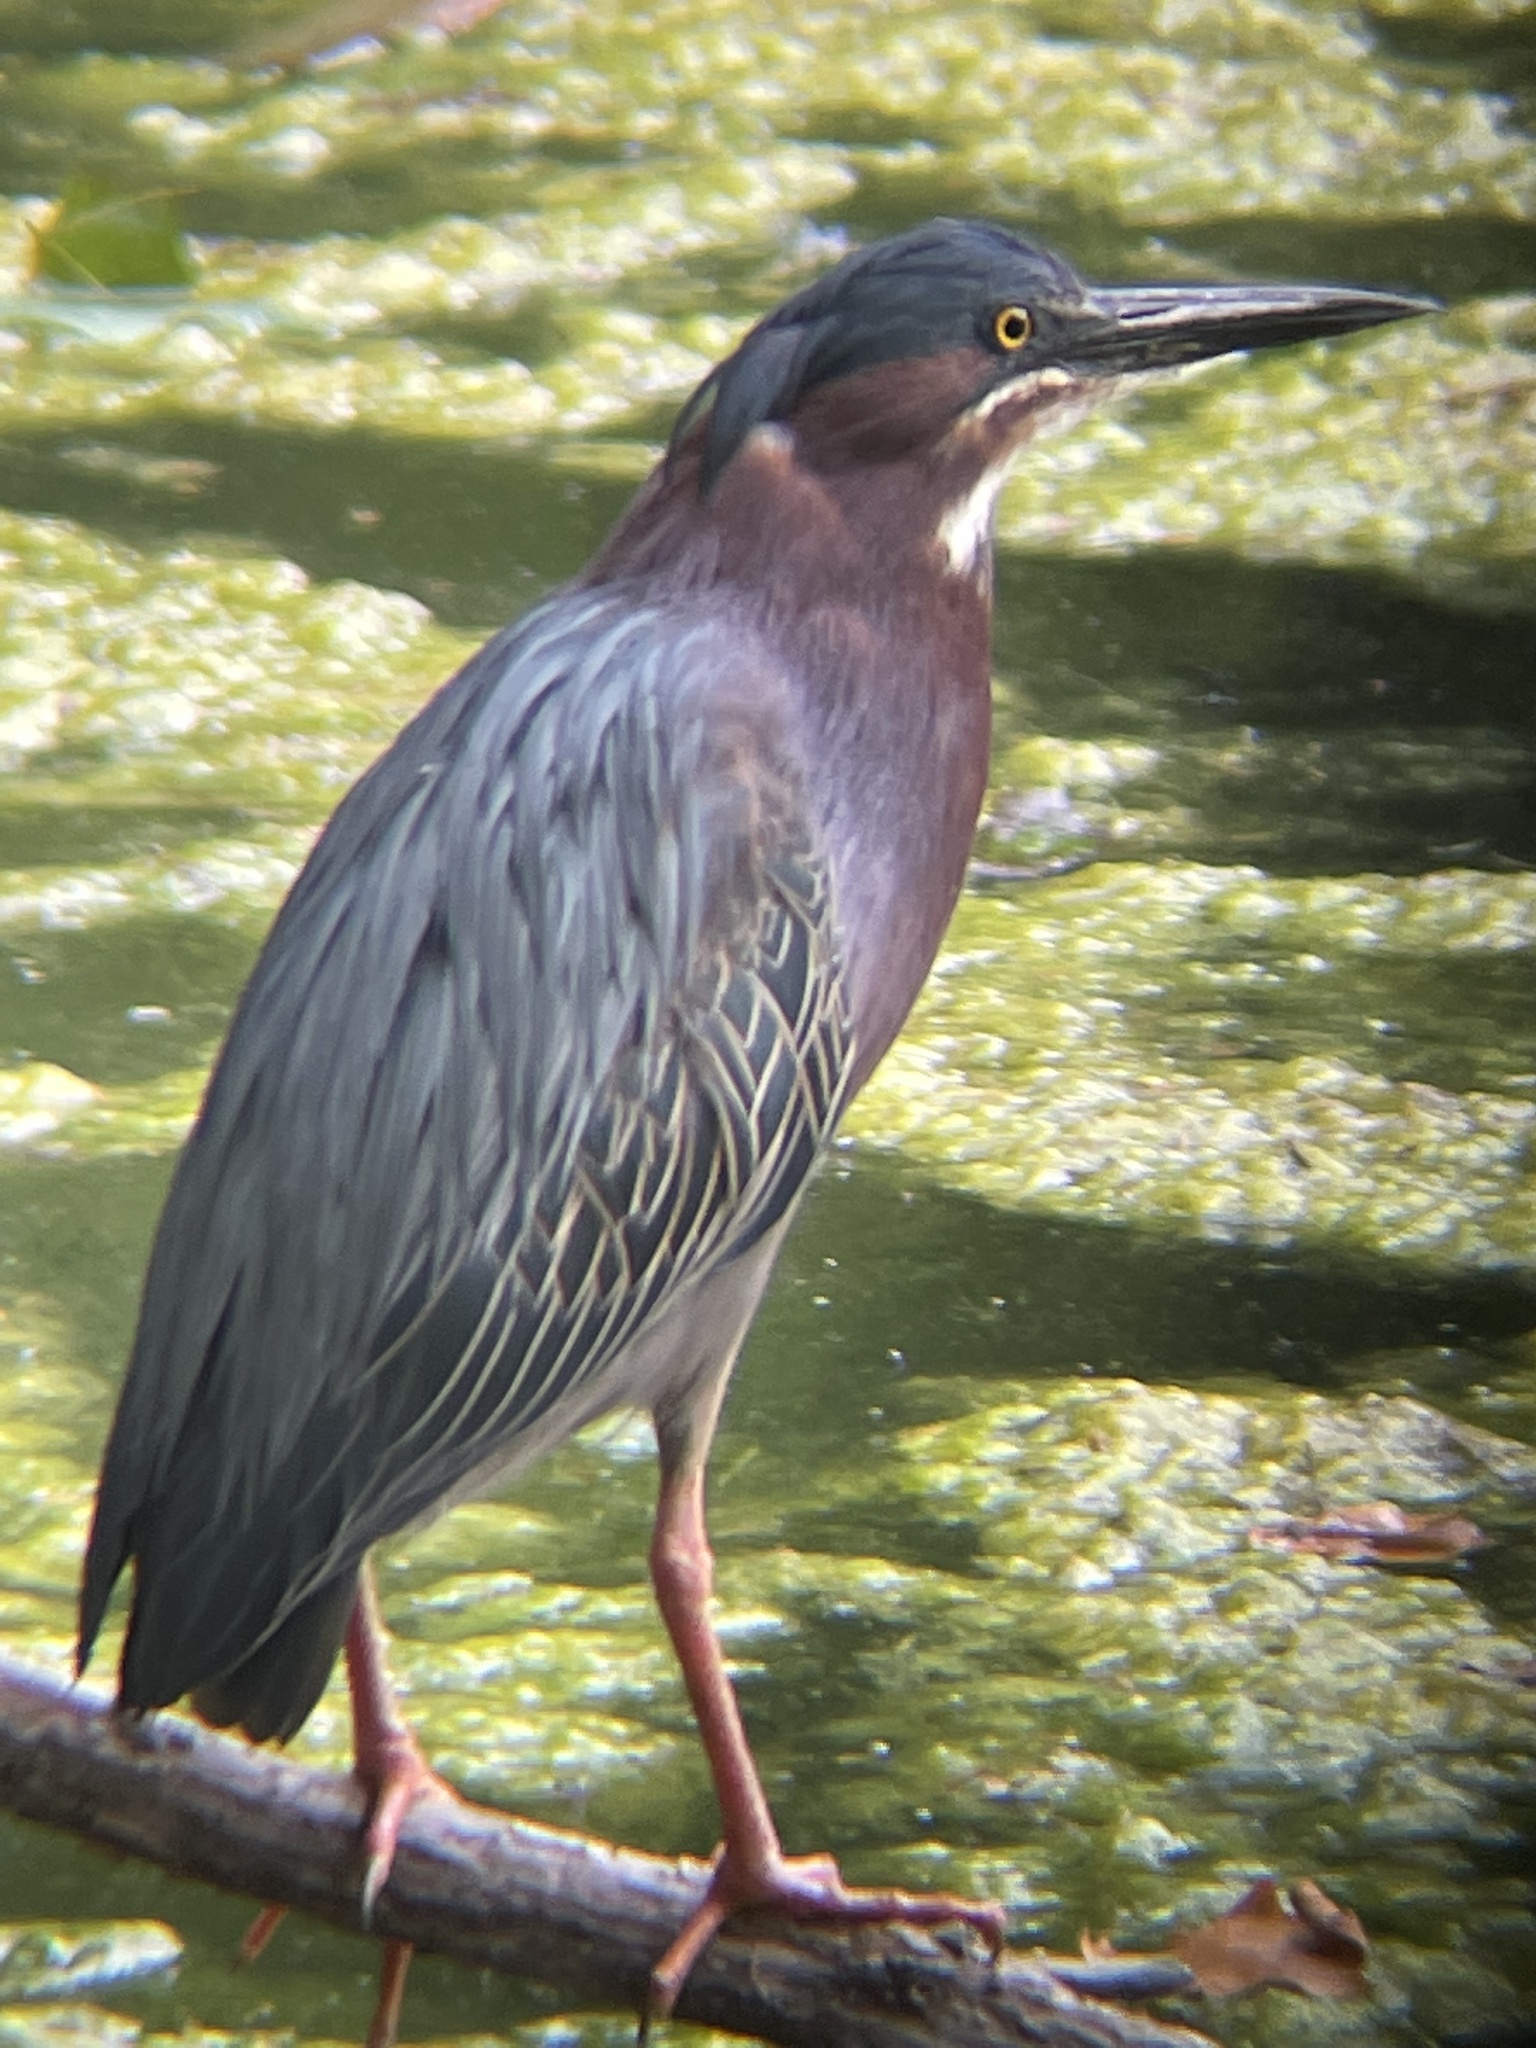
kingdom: Animalia
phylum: Chordata
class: Aves
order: Pelecaniformes
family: Ardeidae
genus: Butorides
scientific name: Butorides virescens
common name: Green heron
